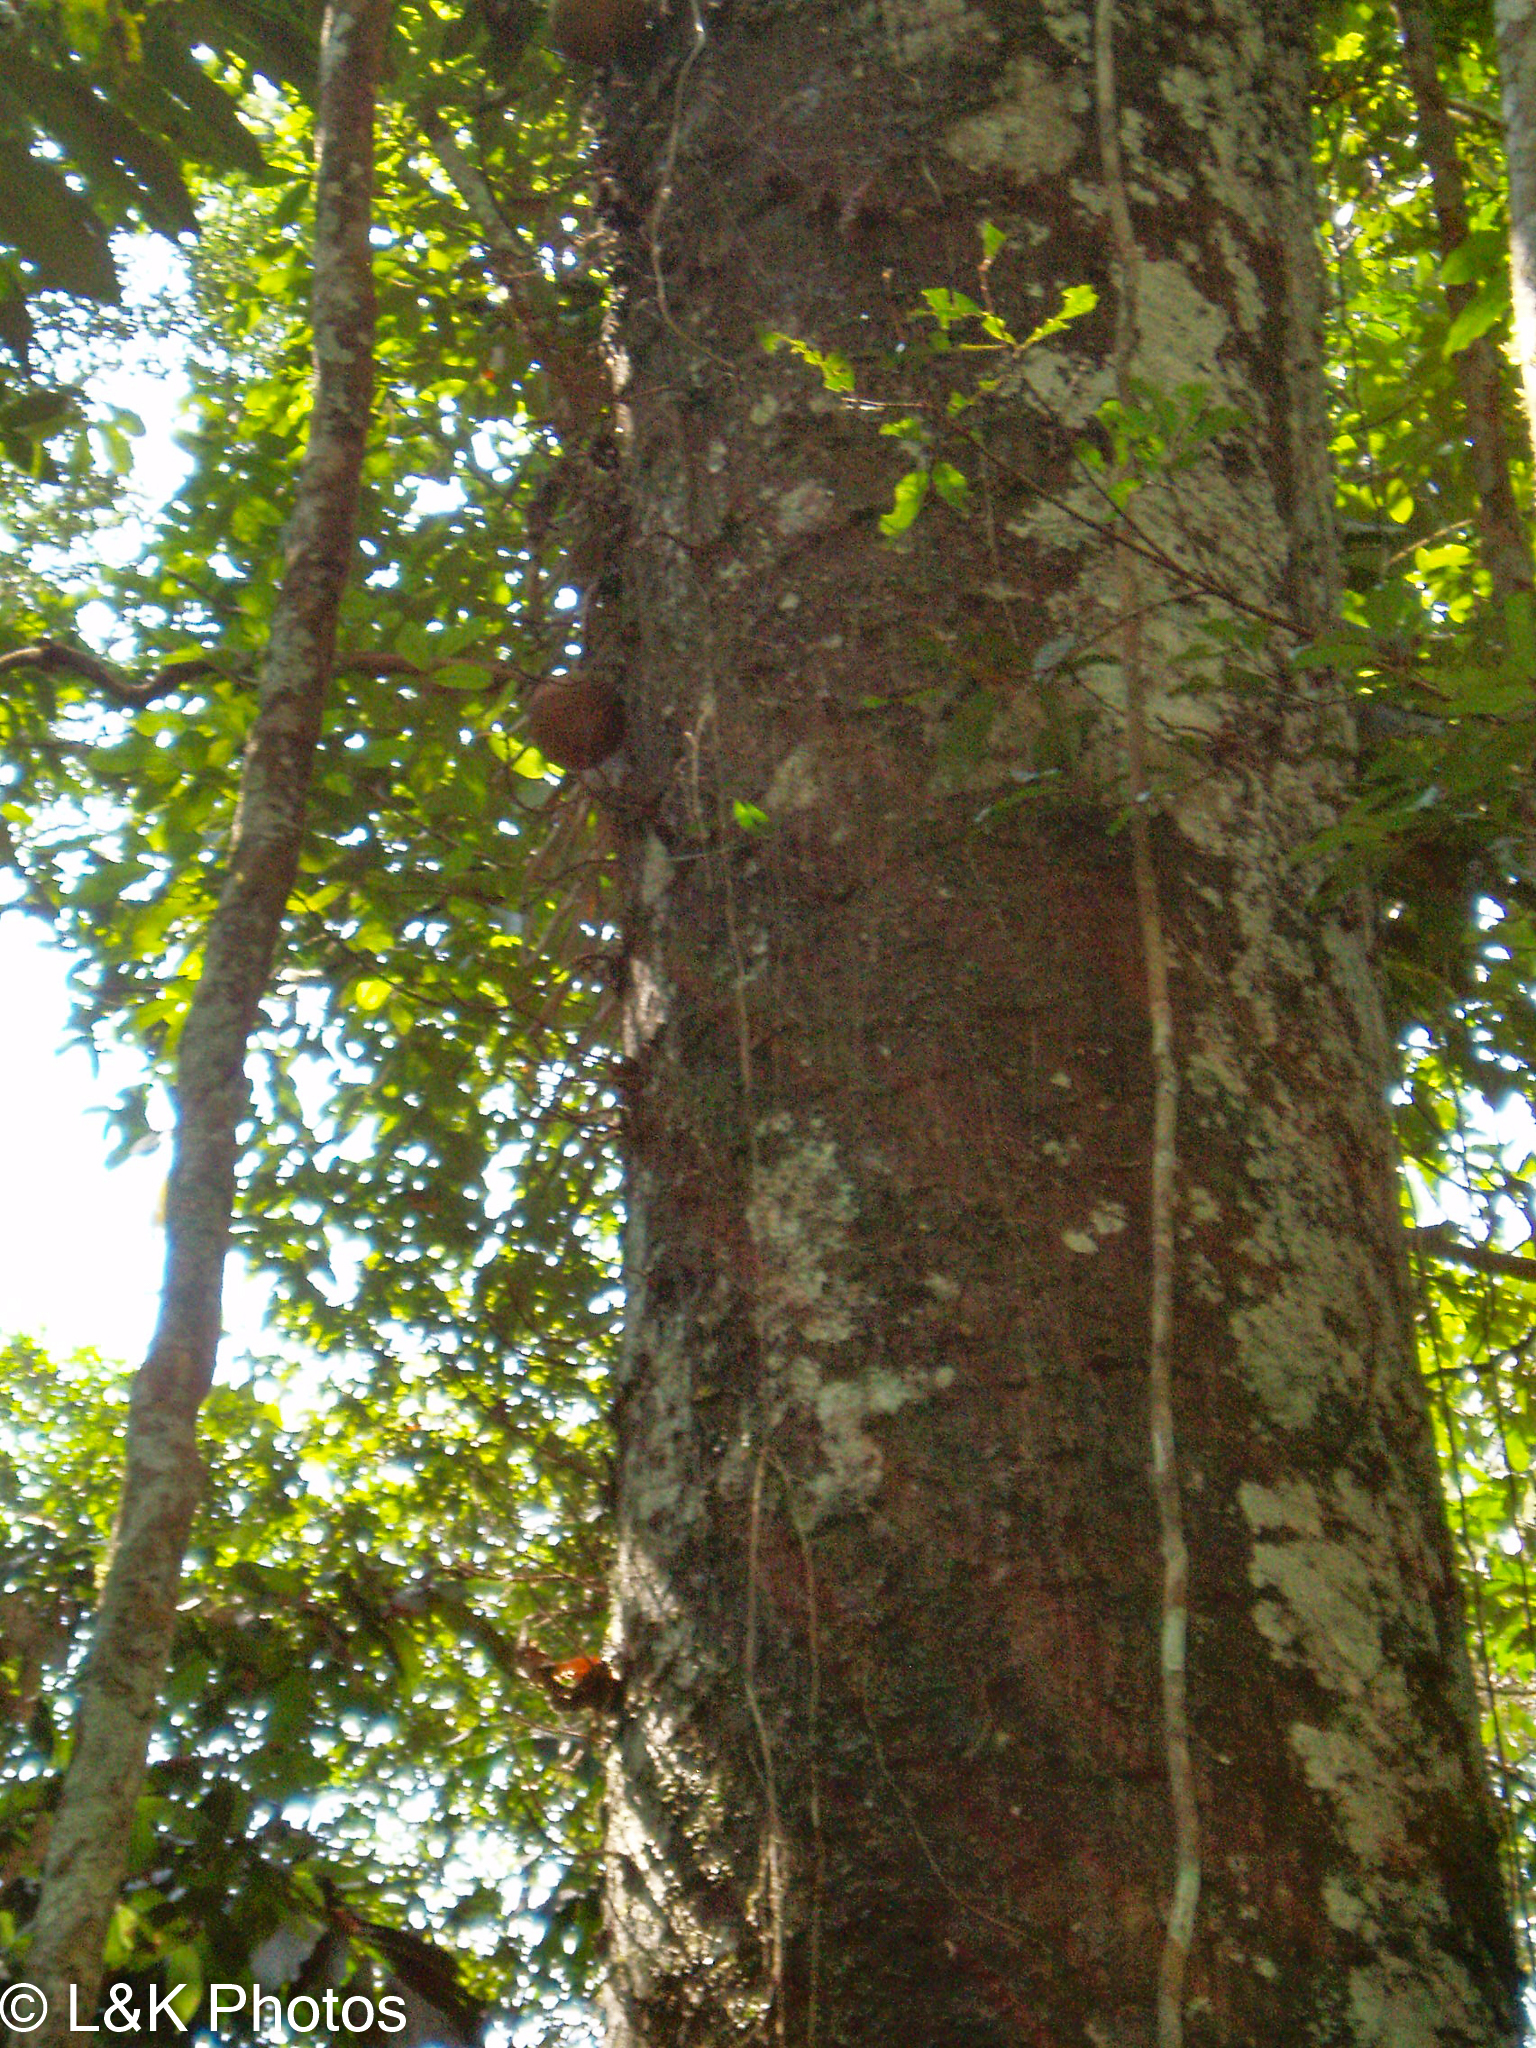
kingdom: Plantae
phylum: Tracheophyta
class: Magnoliopsida
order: Ericales
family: Lecythidaceae
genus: Couroupita
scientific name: Couroupita guianensis
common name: Cannonball tree
